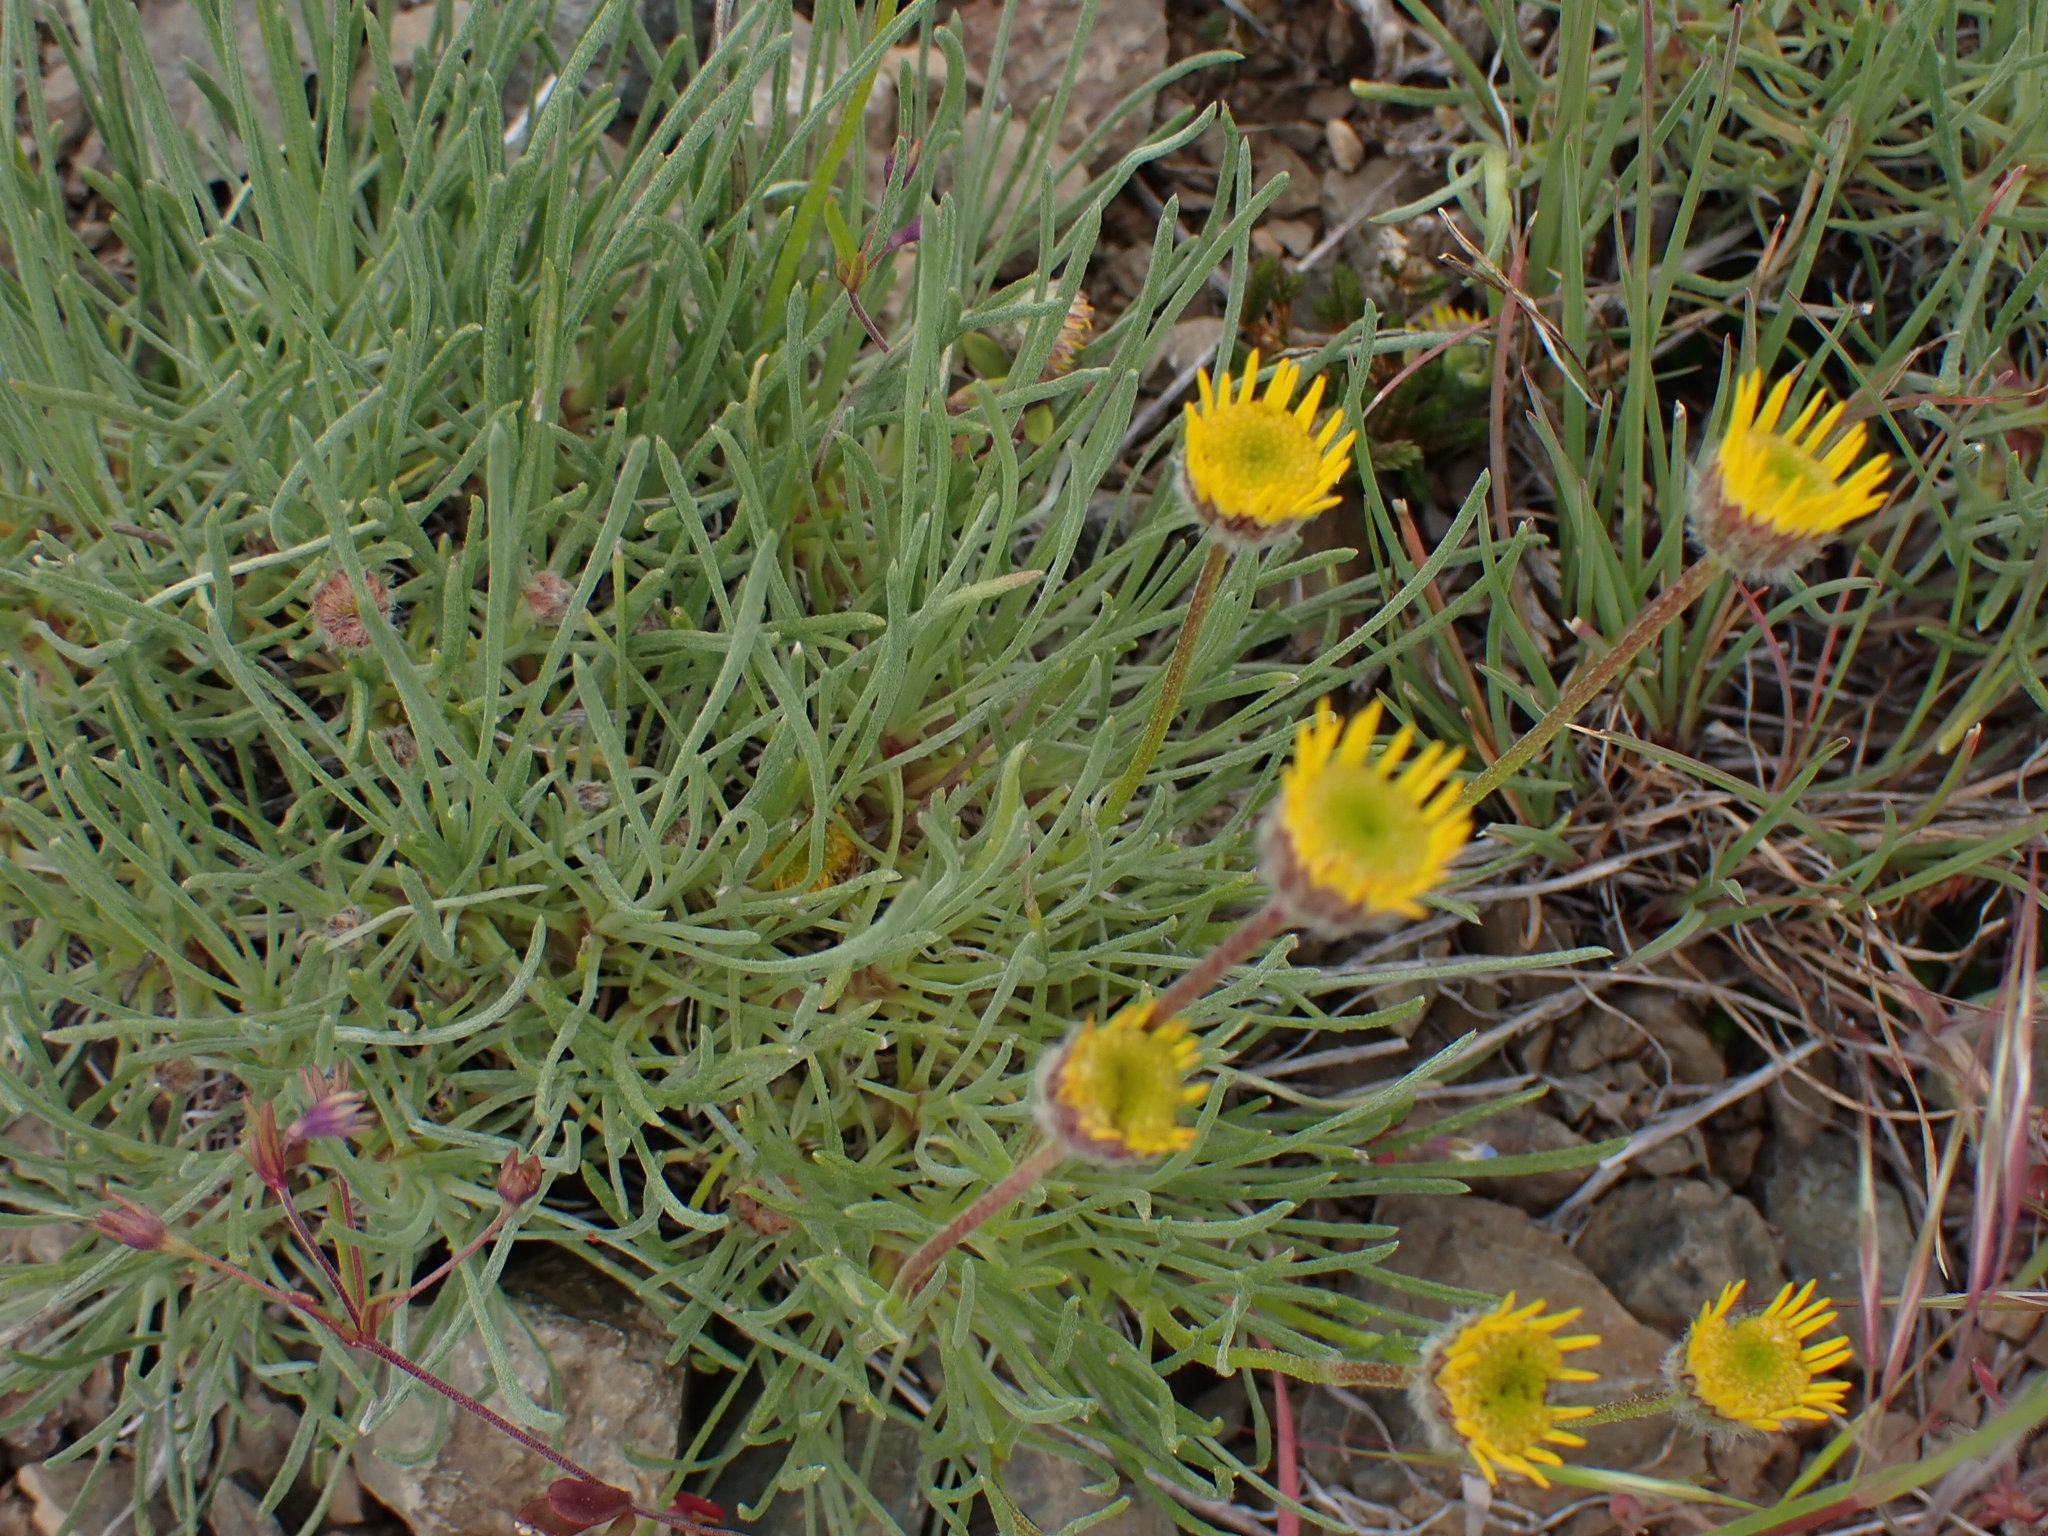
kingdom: Plantae
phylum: Tracheophyta
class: Magnoliopsida
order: Asterales
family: Asteraceae
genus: Erigeron
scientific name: Erigeron linearis
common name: Desert yellow fleabane
